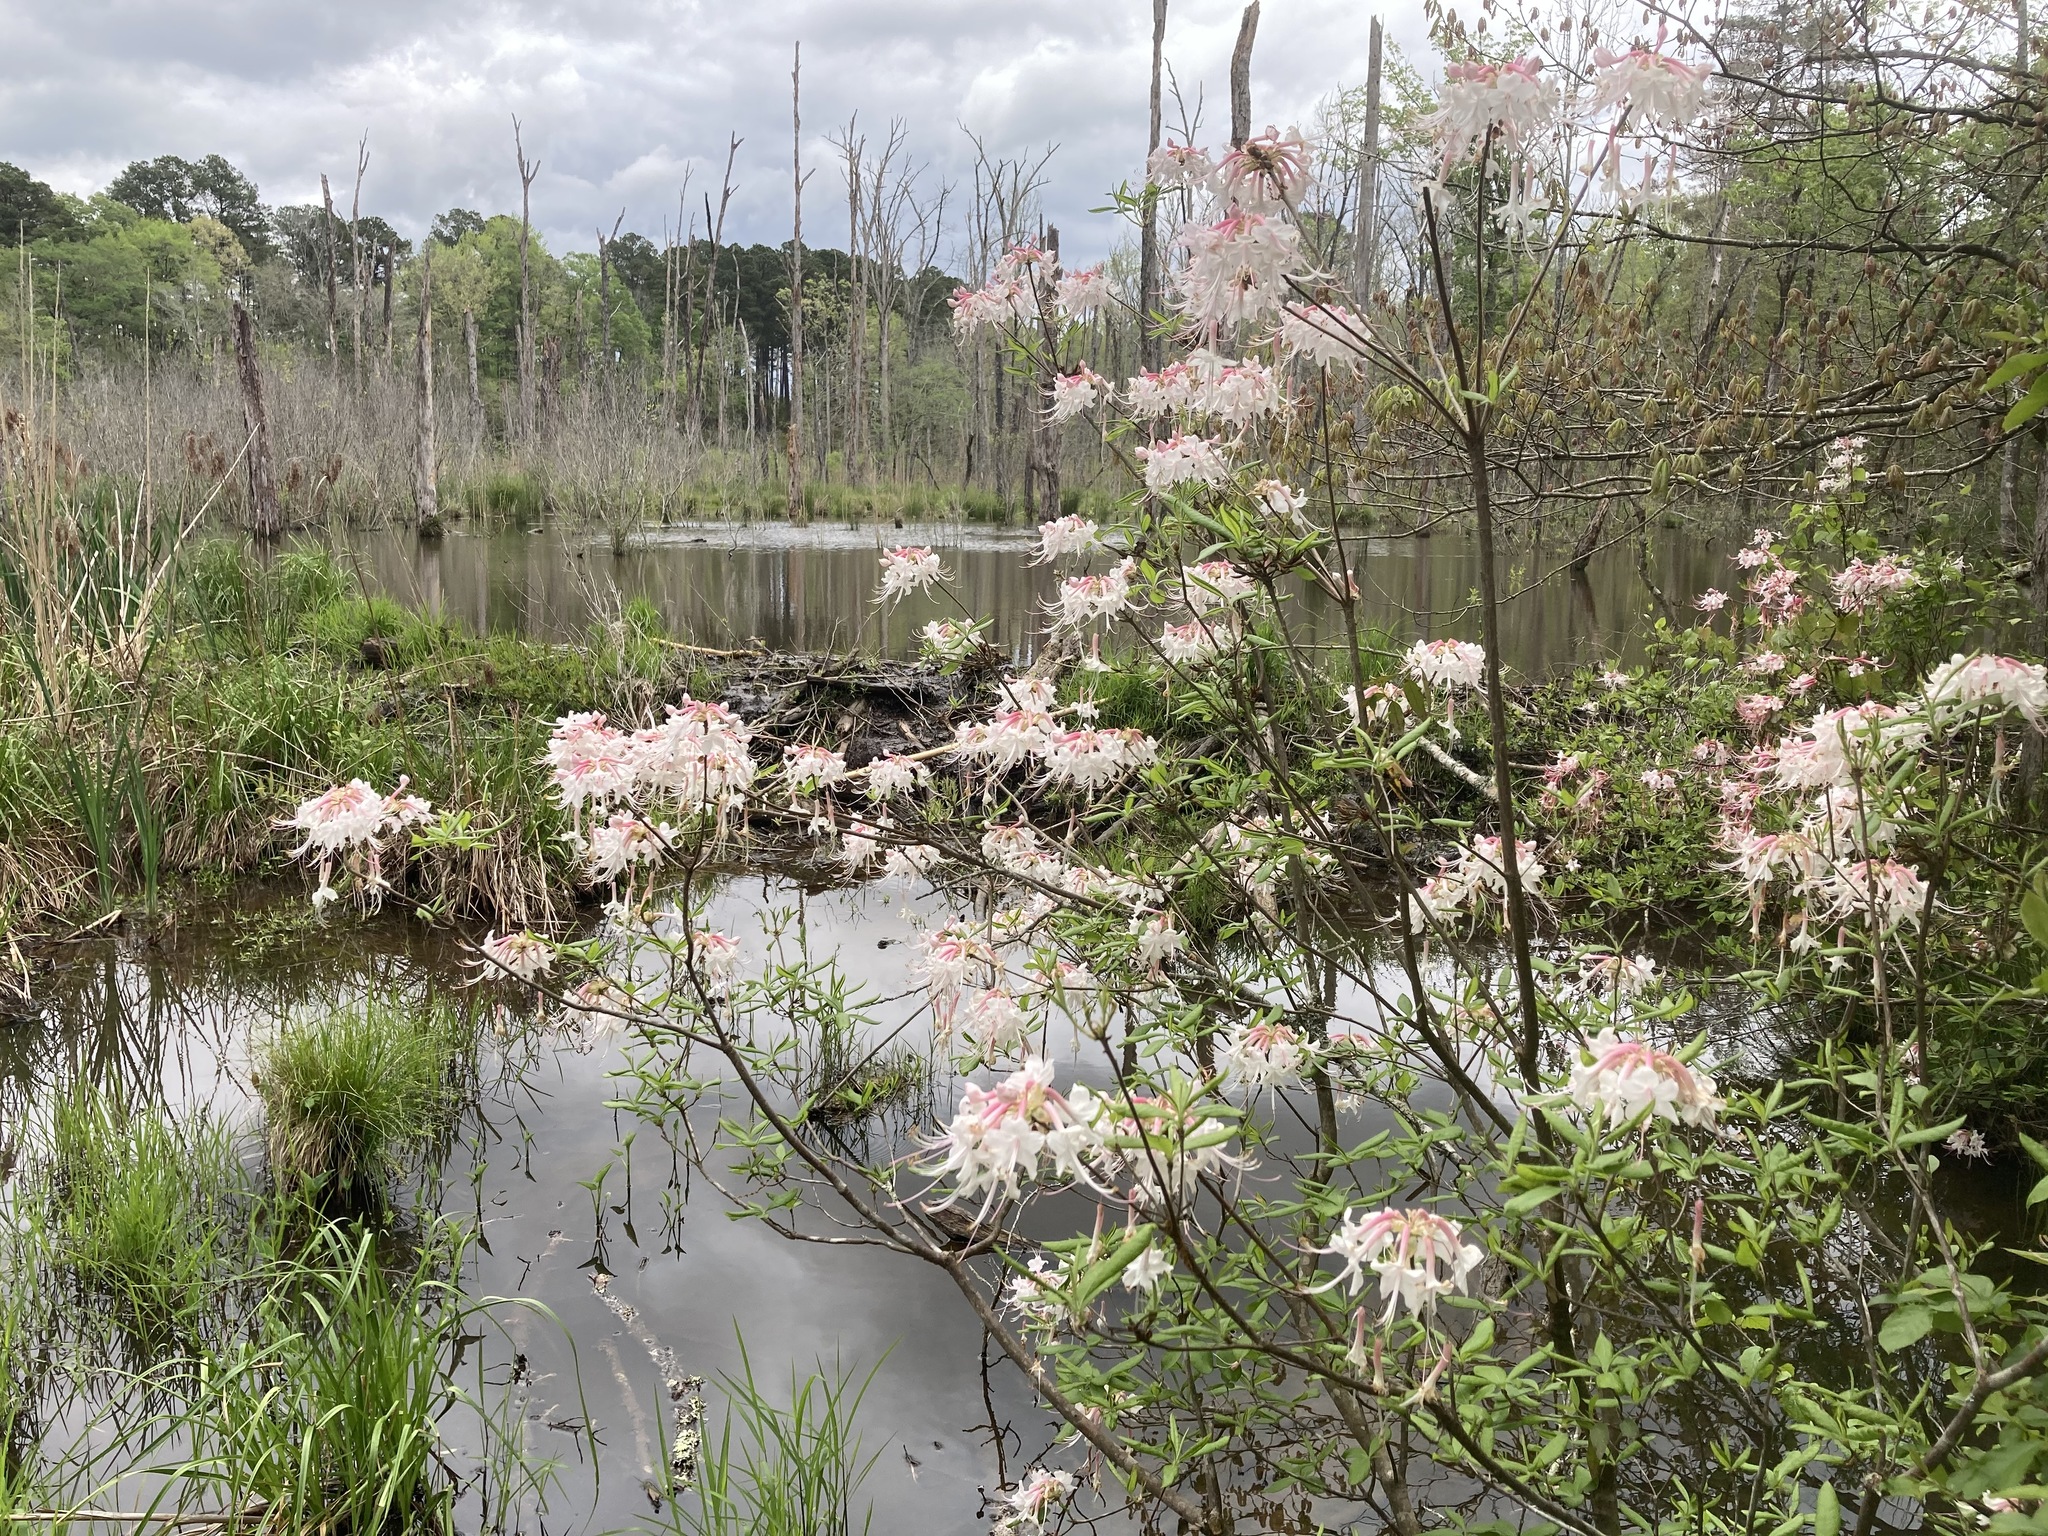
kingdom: Plantae
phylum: Tracheophyta
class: Magnoliopsida
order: Ericales
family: Ericaceae
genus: Rhododendron
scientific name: Rhododendron canescens
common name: Mountain azalea
